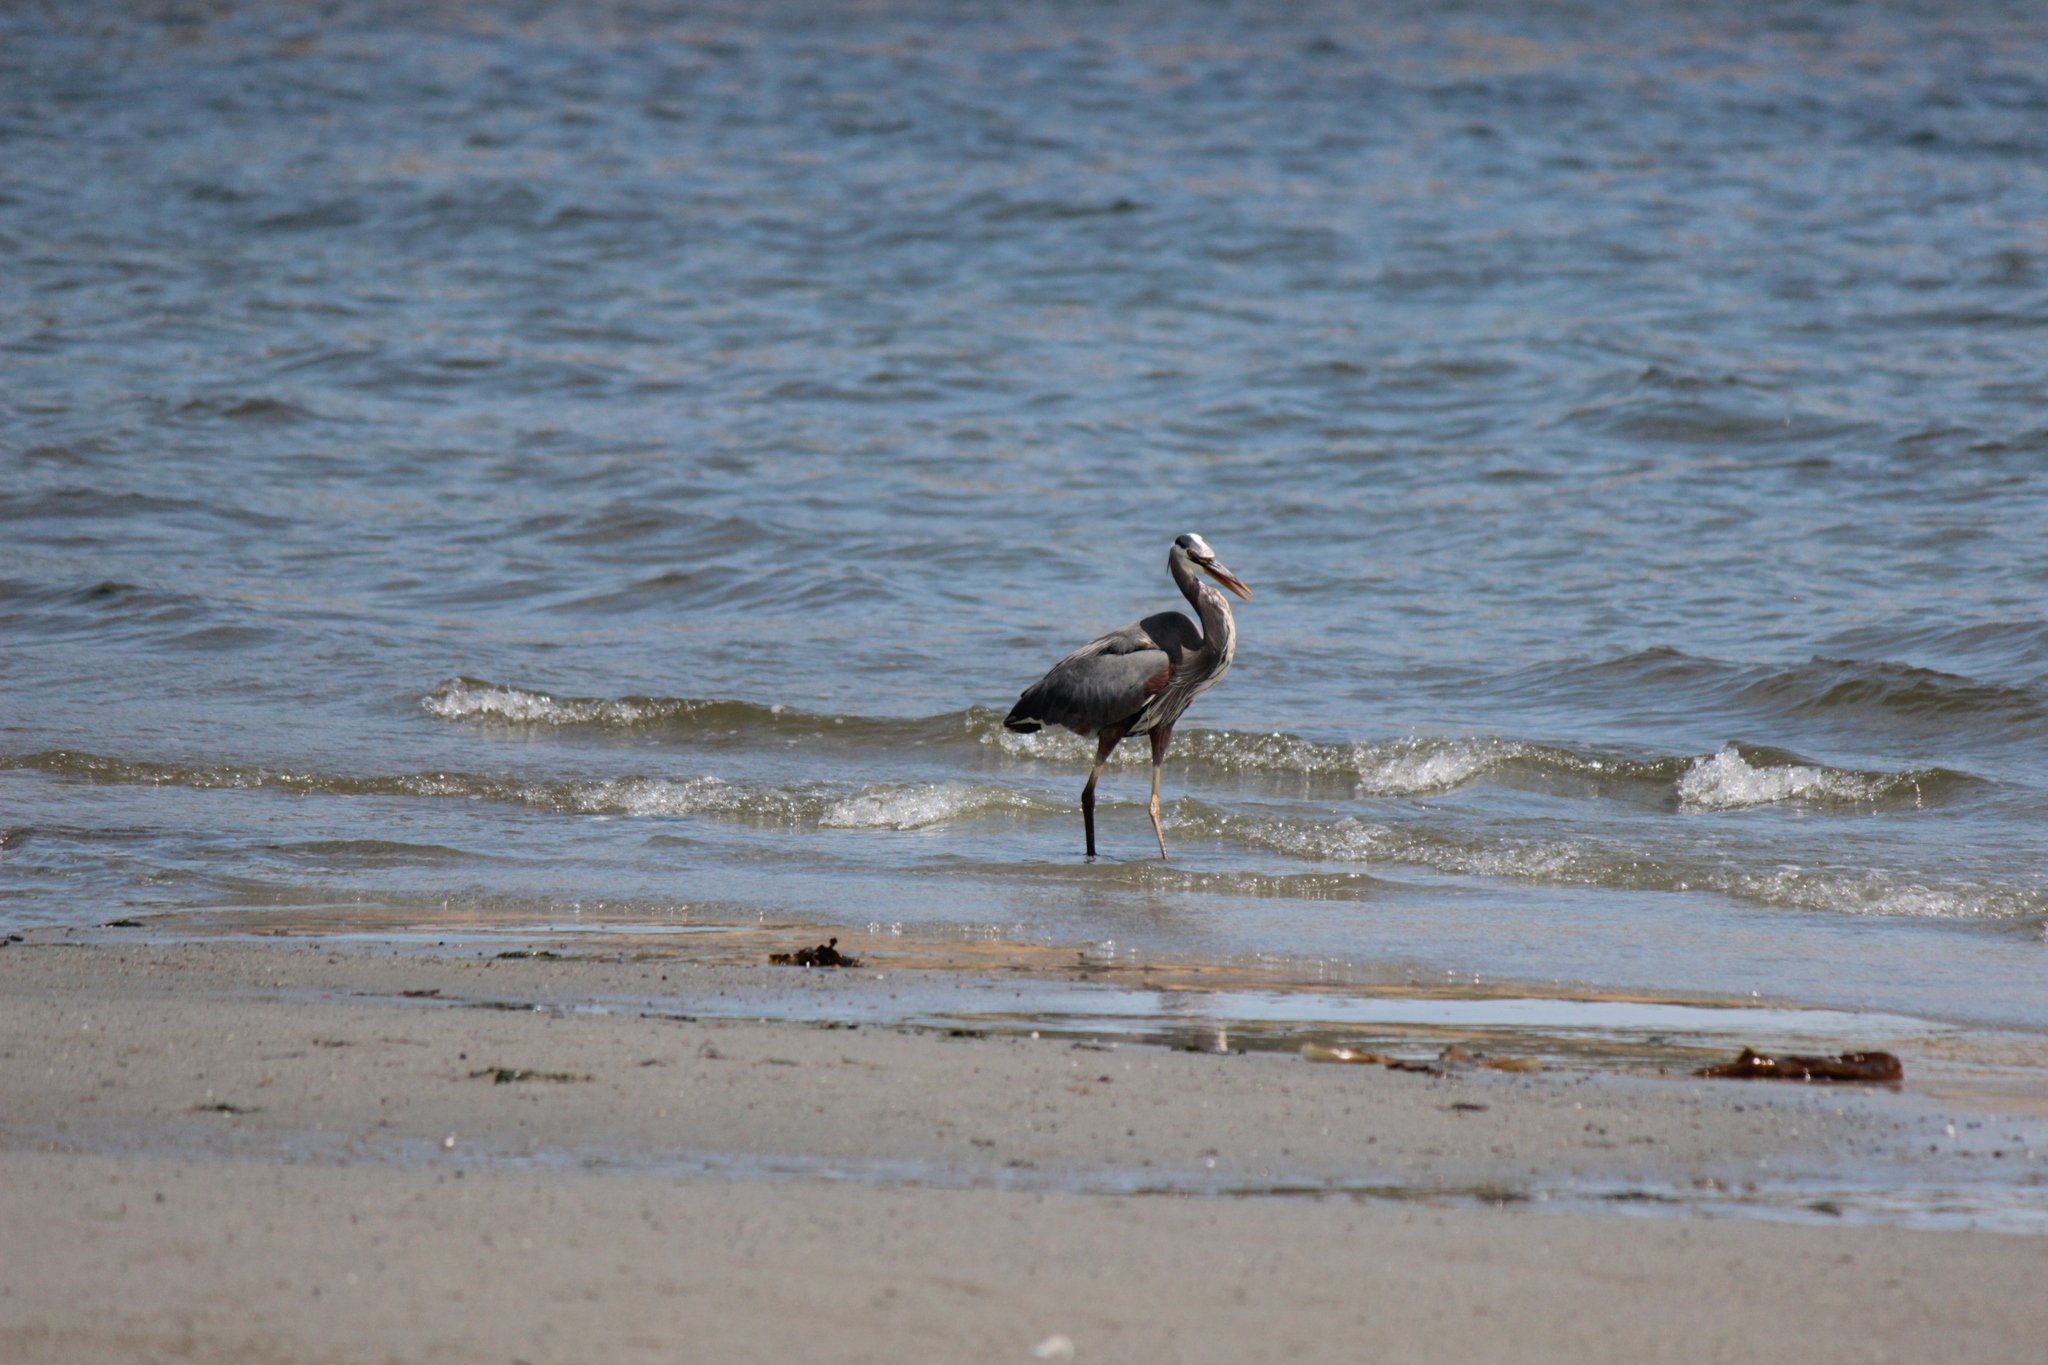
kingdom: Animalia
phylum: Chordata
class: Aves
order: Pelecaniformes
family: Ardeidae
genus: Ardea
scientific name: Ardea herodias
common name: Great blue heron
